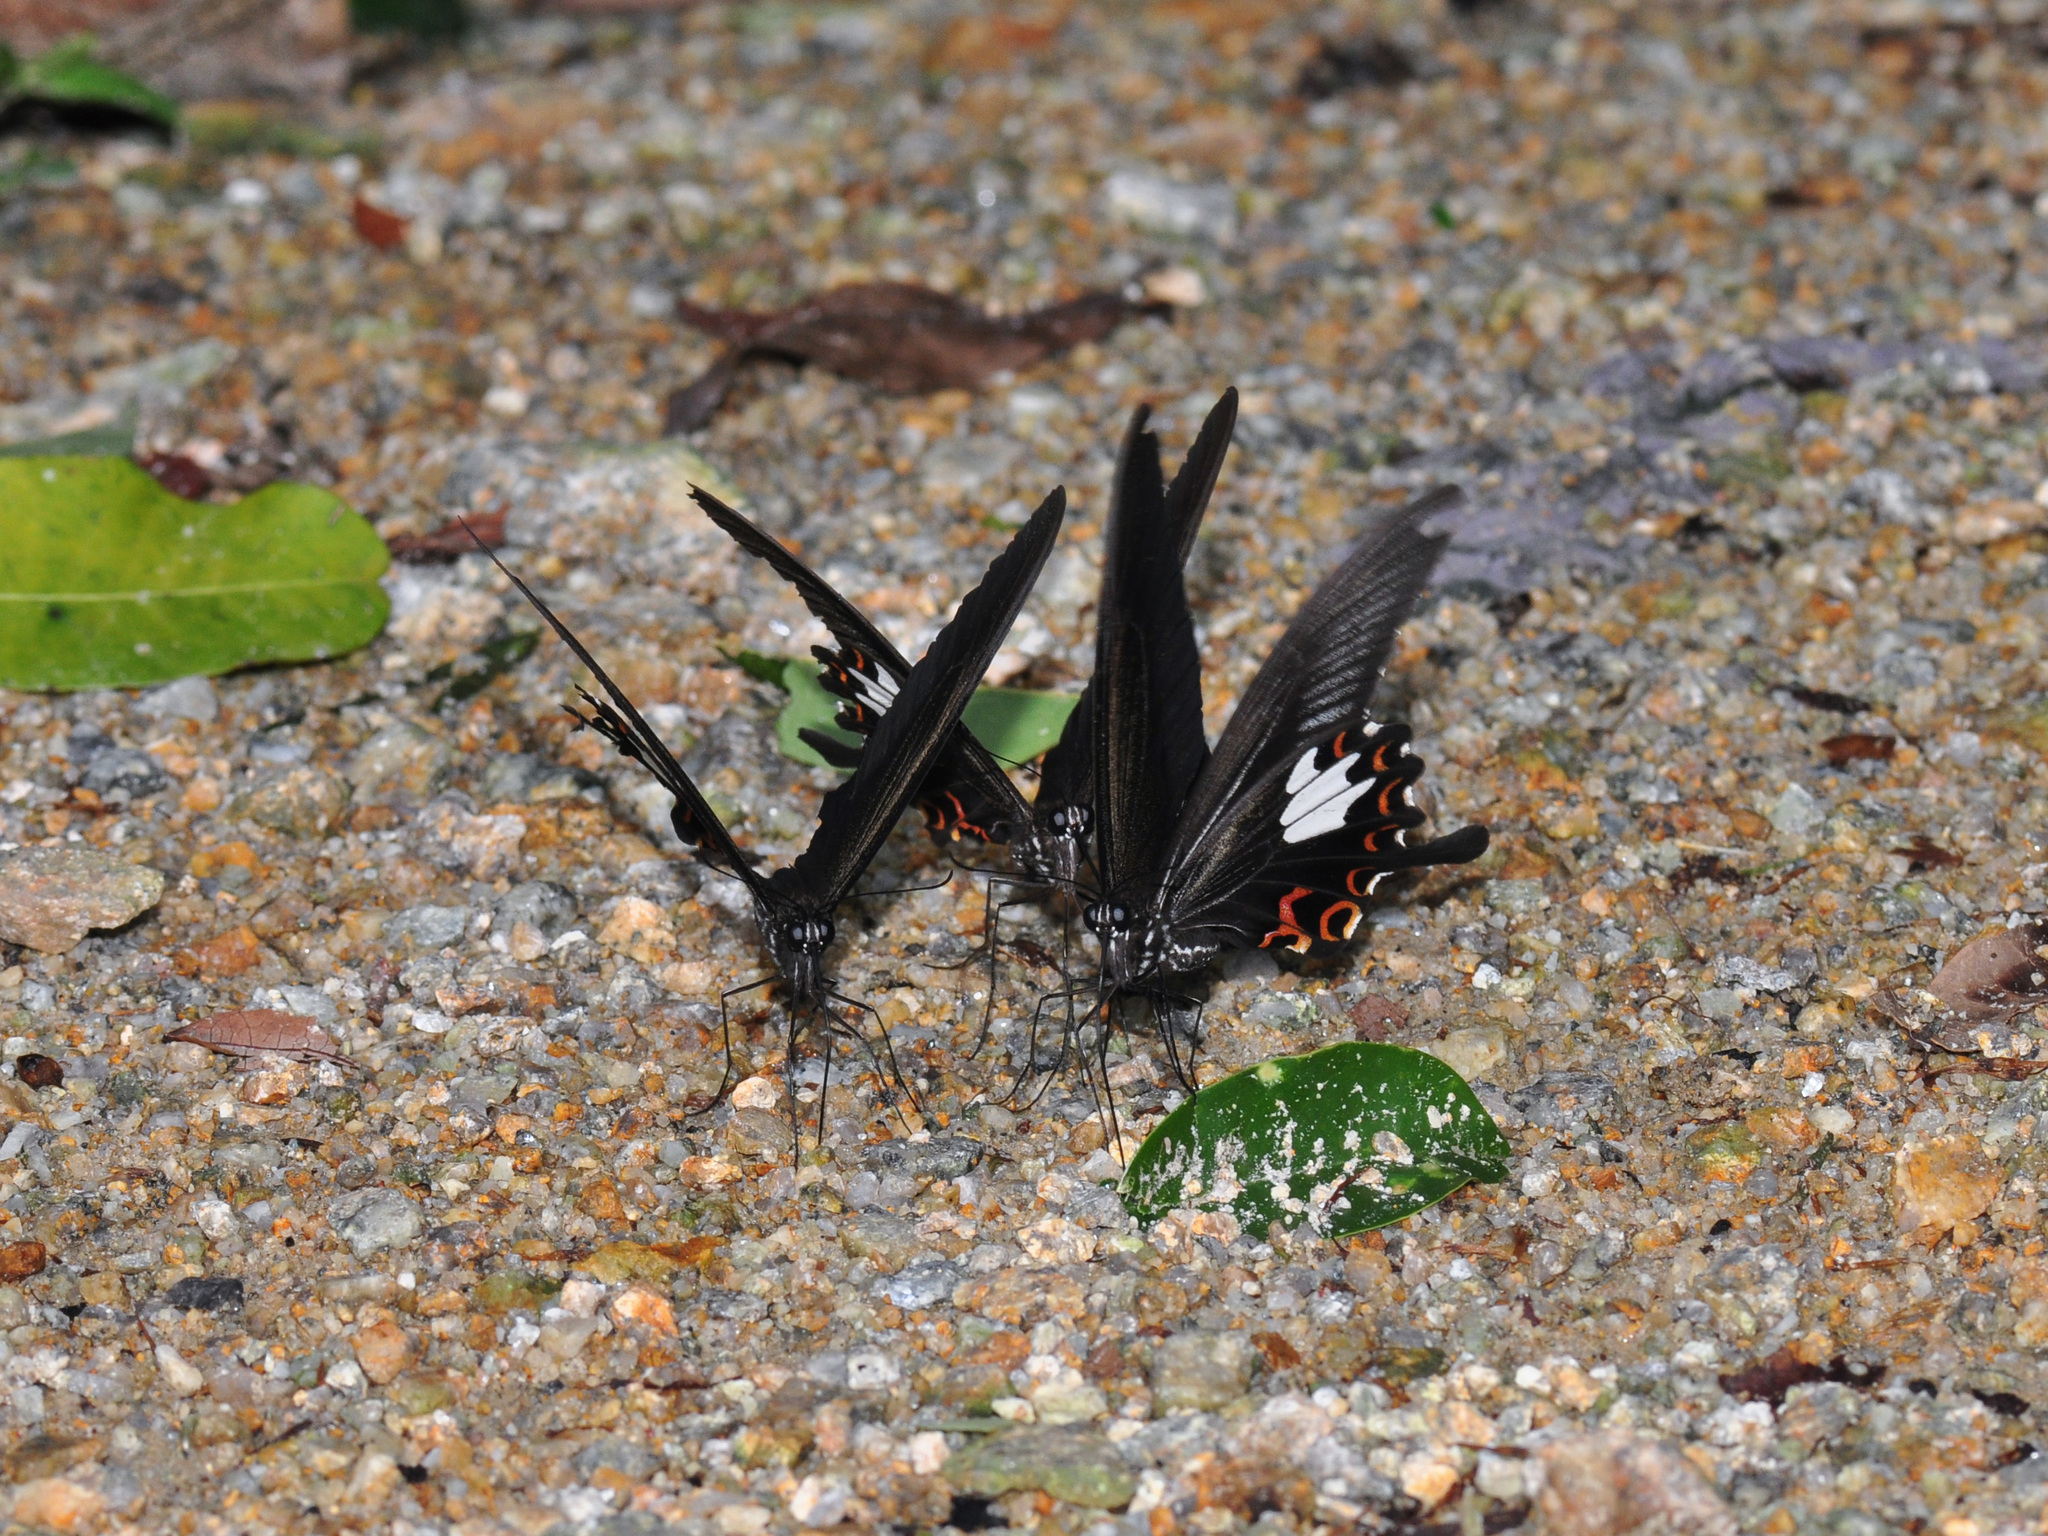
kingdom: Animalia
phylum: Arthropoda
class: Insecta
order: Lepidoptera
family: Papilionidae
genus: Papilio
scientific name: Papilio helenus
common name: Red helen
